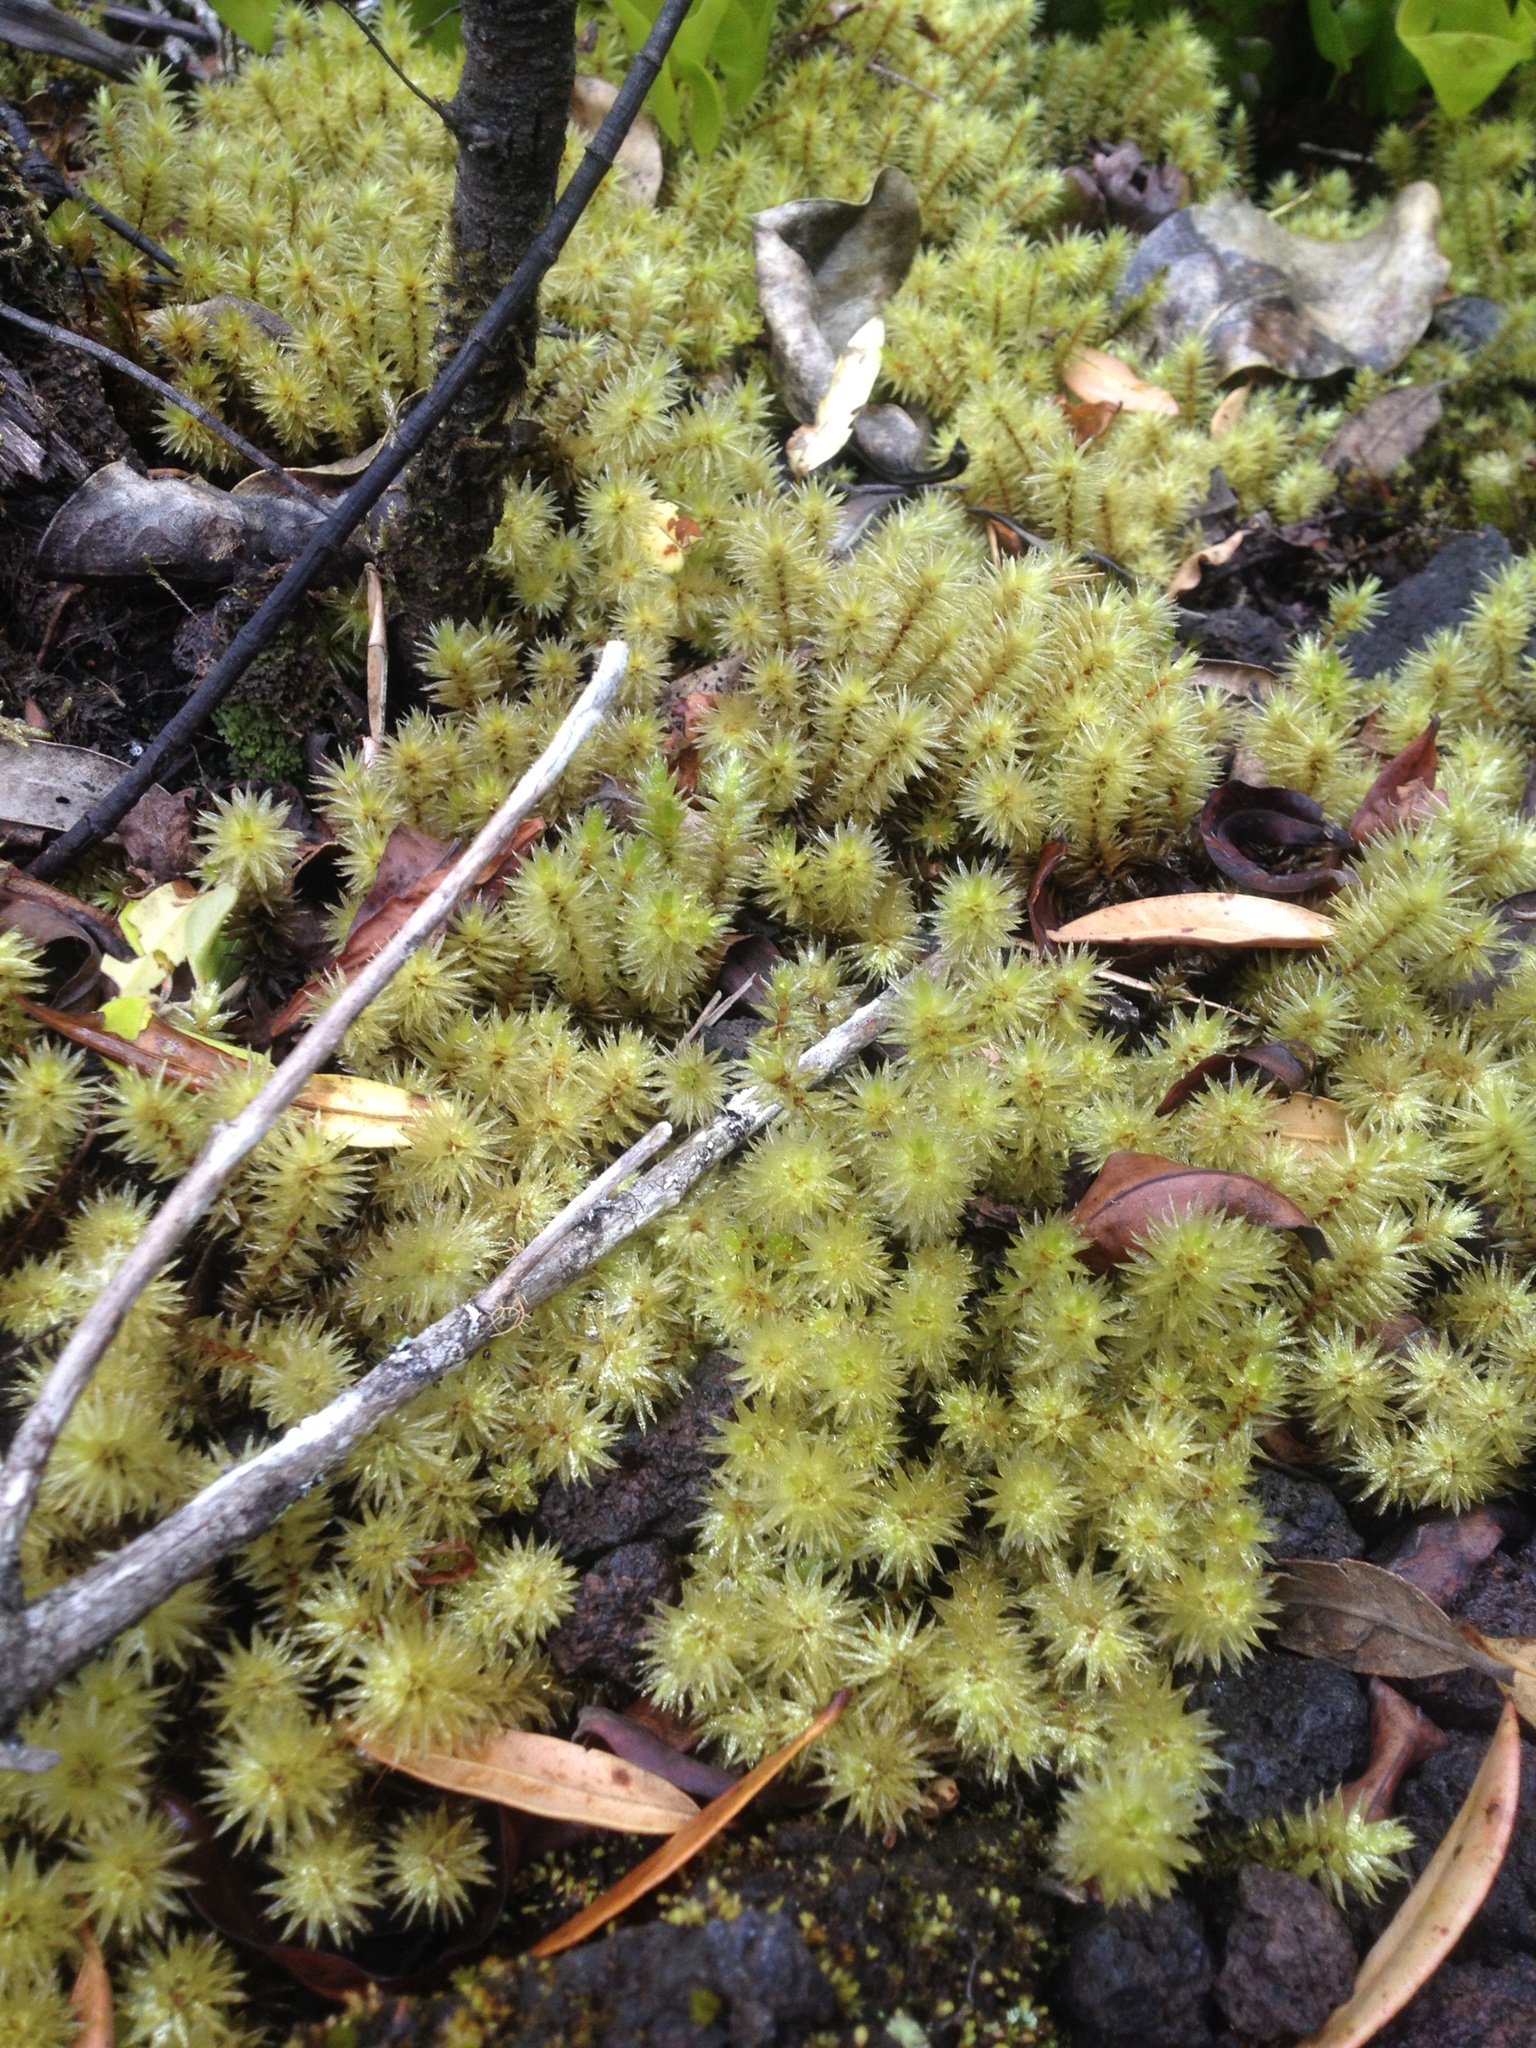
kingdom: Plantae
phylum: Bryophyta
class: Bryopsida
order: Bryales
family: Pulchrinodaceae
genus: Pulchrinodus
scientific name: Pulchrinodus inflatus
